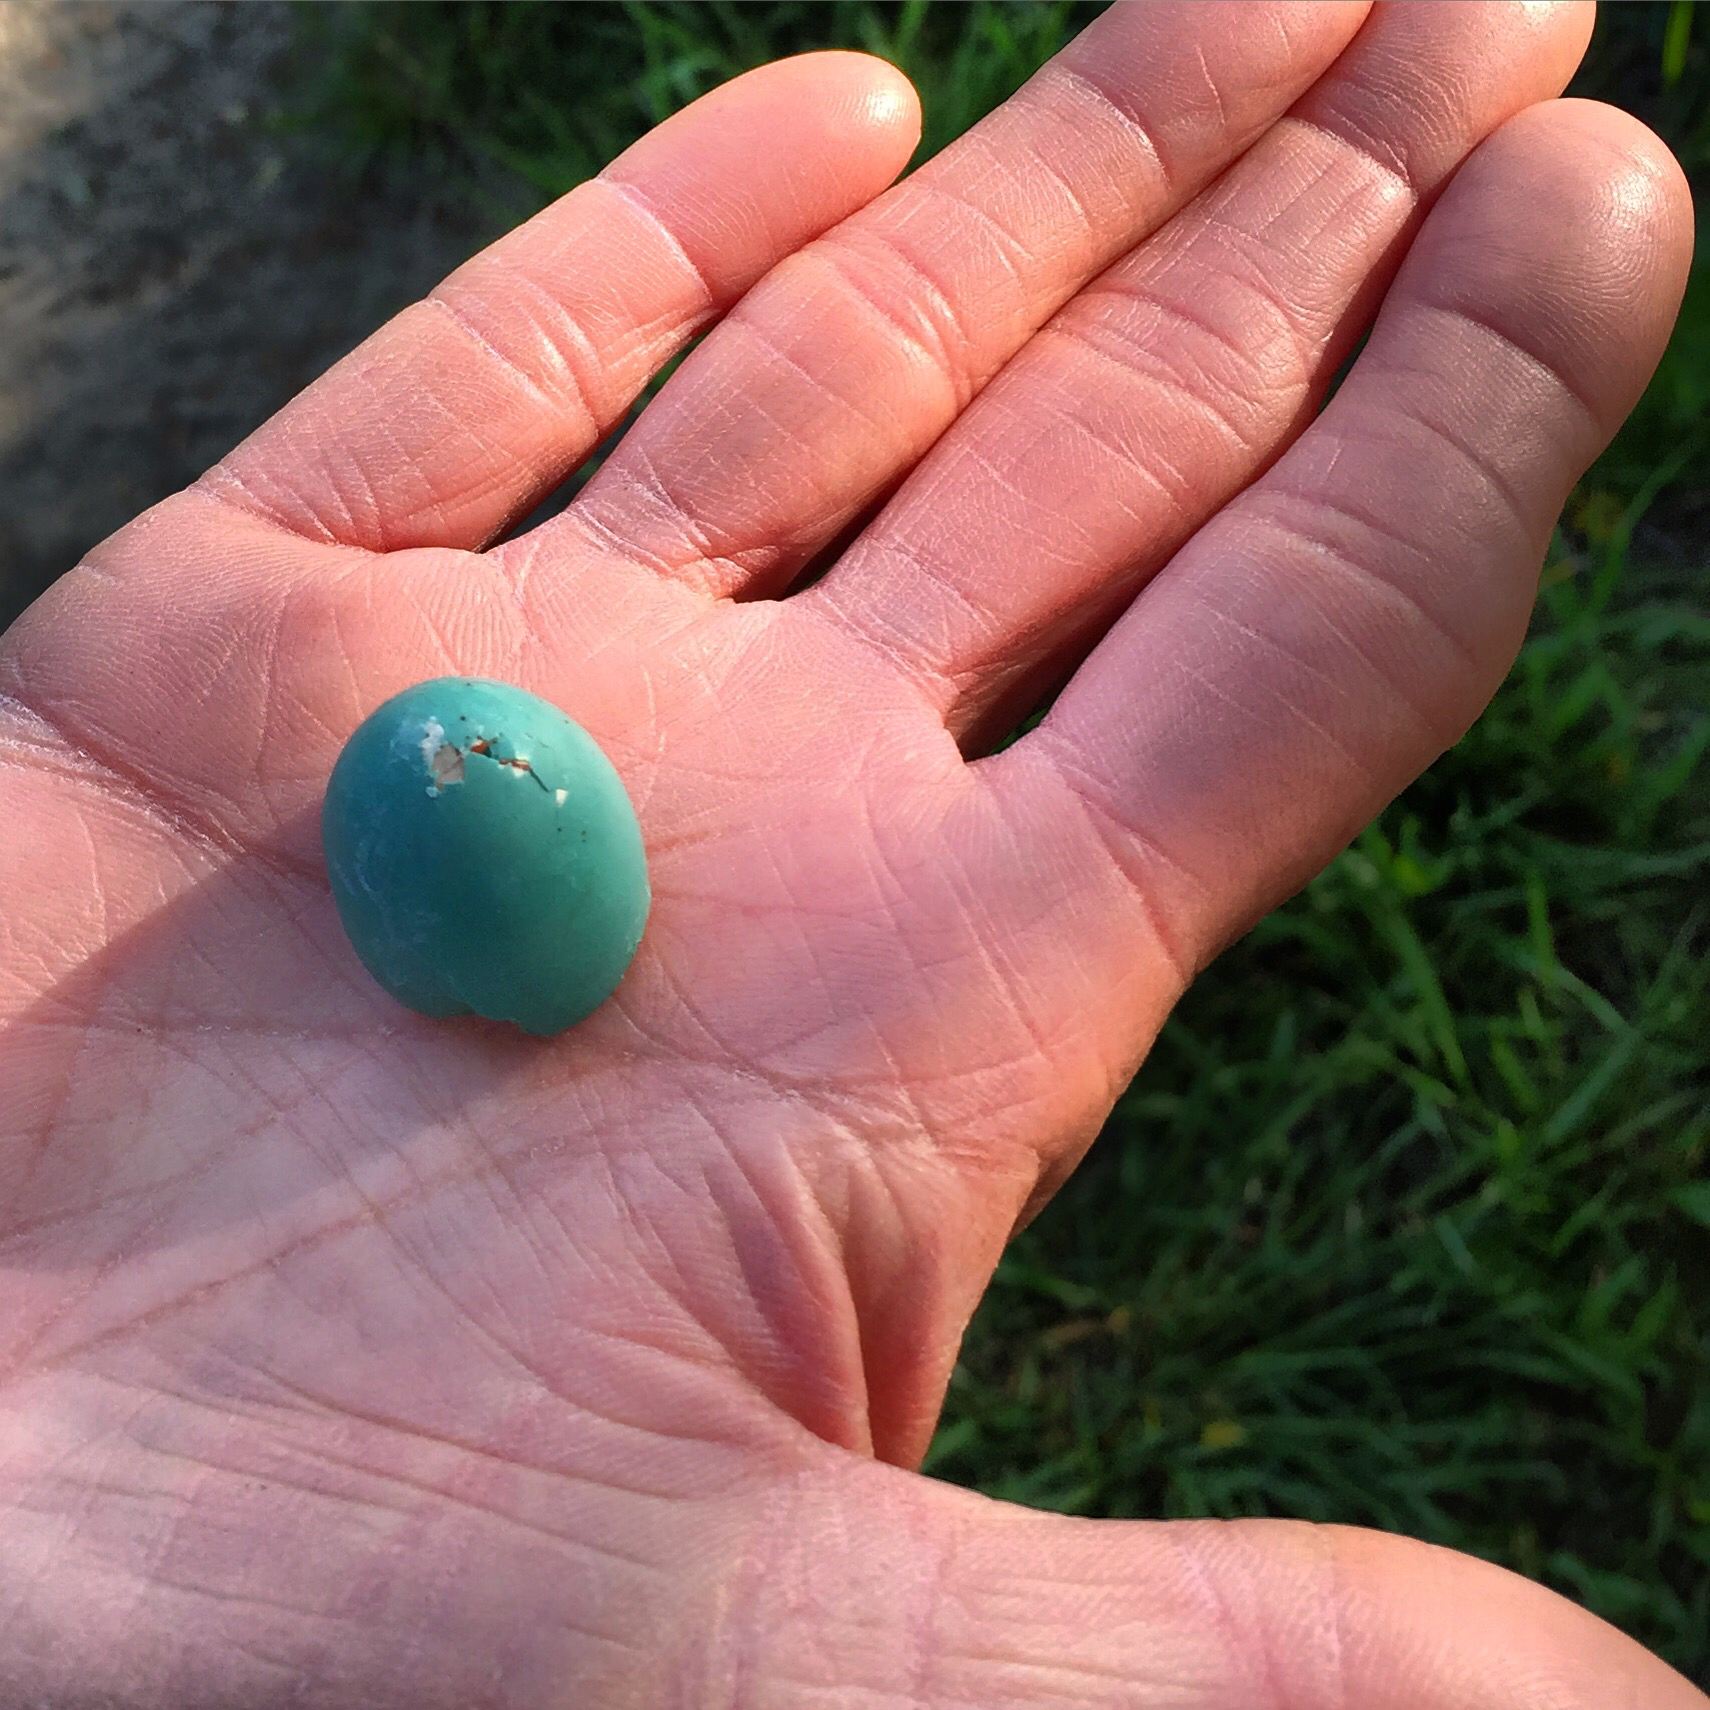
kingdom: Animalia
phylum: Chordata
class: Aves
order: Passeriformes
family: Turdidae
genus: Turdus
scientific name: Turdus migratorius
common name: American robin
